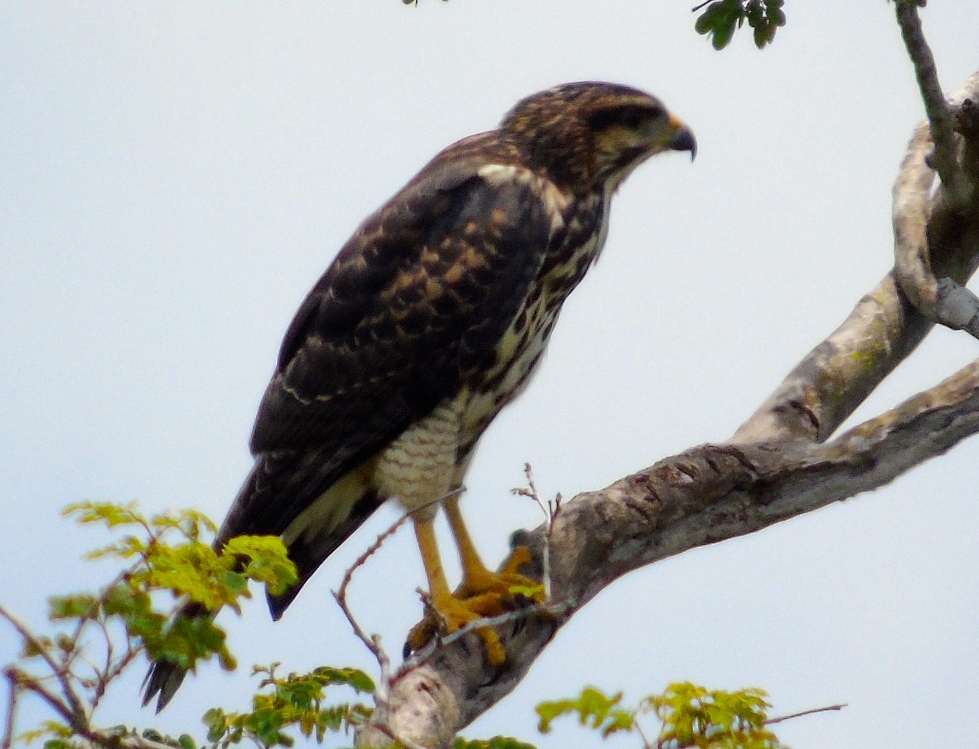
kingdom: Animalia
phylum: Chordata
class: Aves
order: Accipitriformes
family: Accipitridae
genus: Buteo
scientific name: Buteo nitidus
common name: Grey-lined hawk
